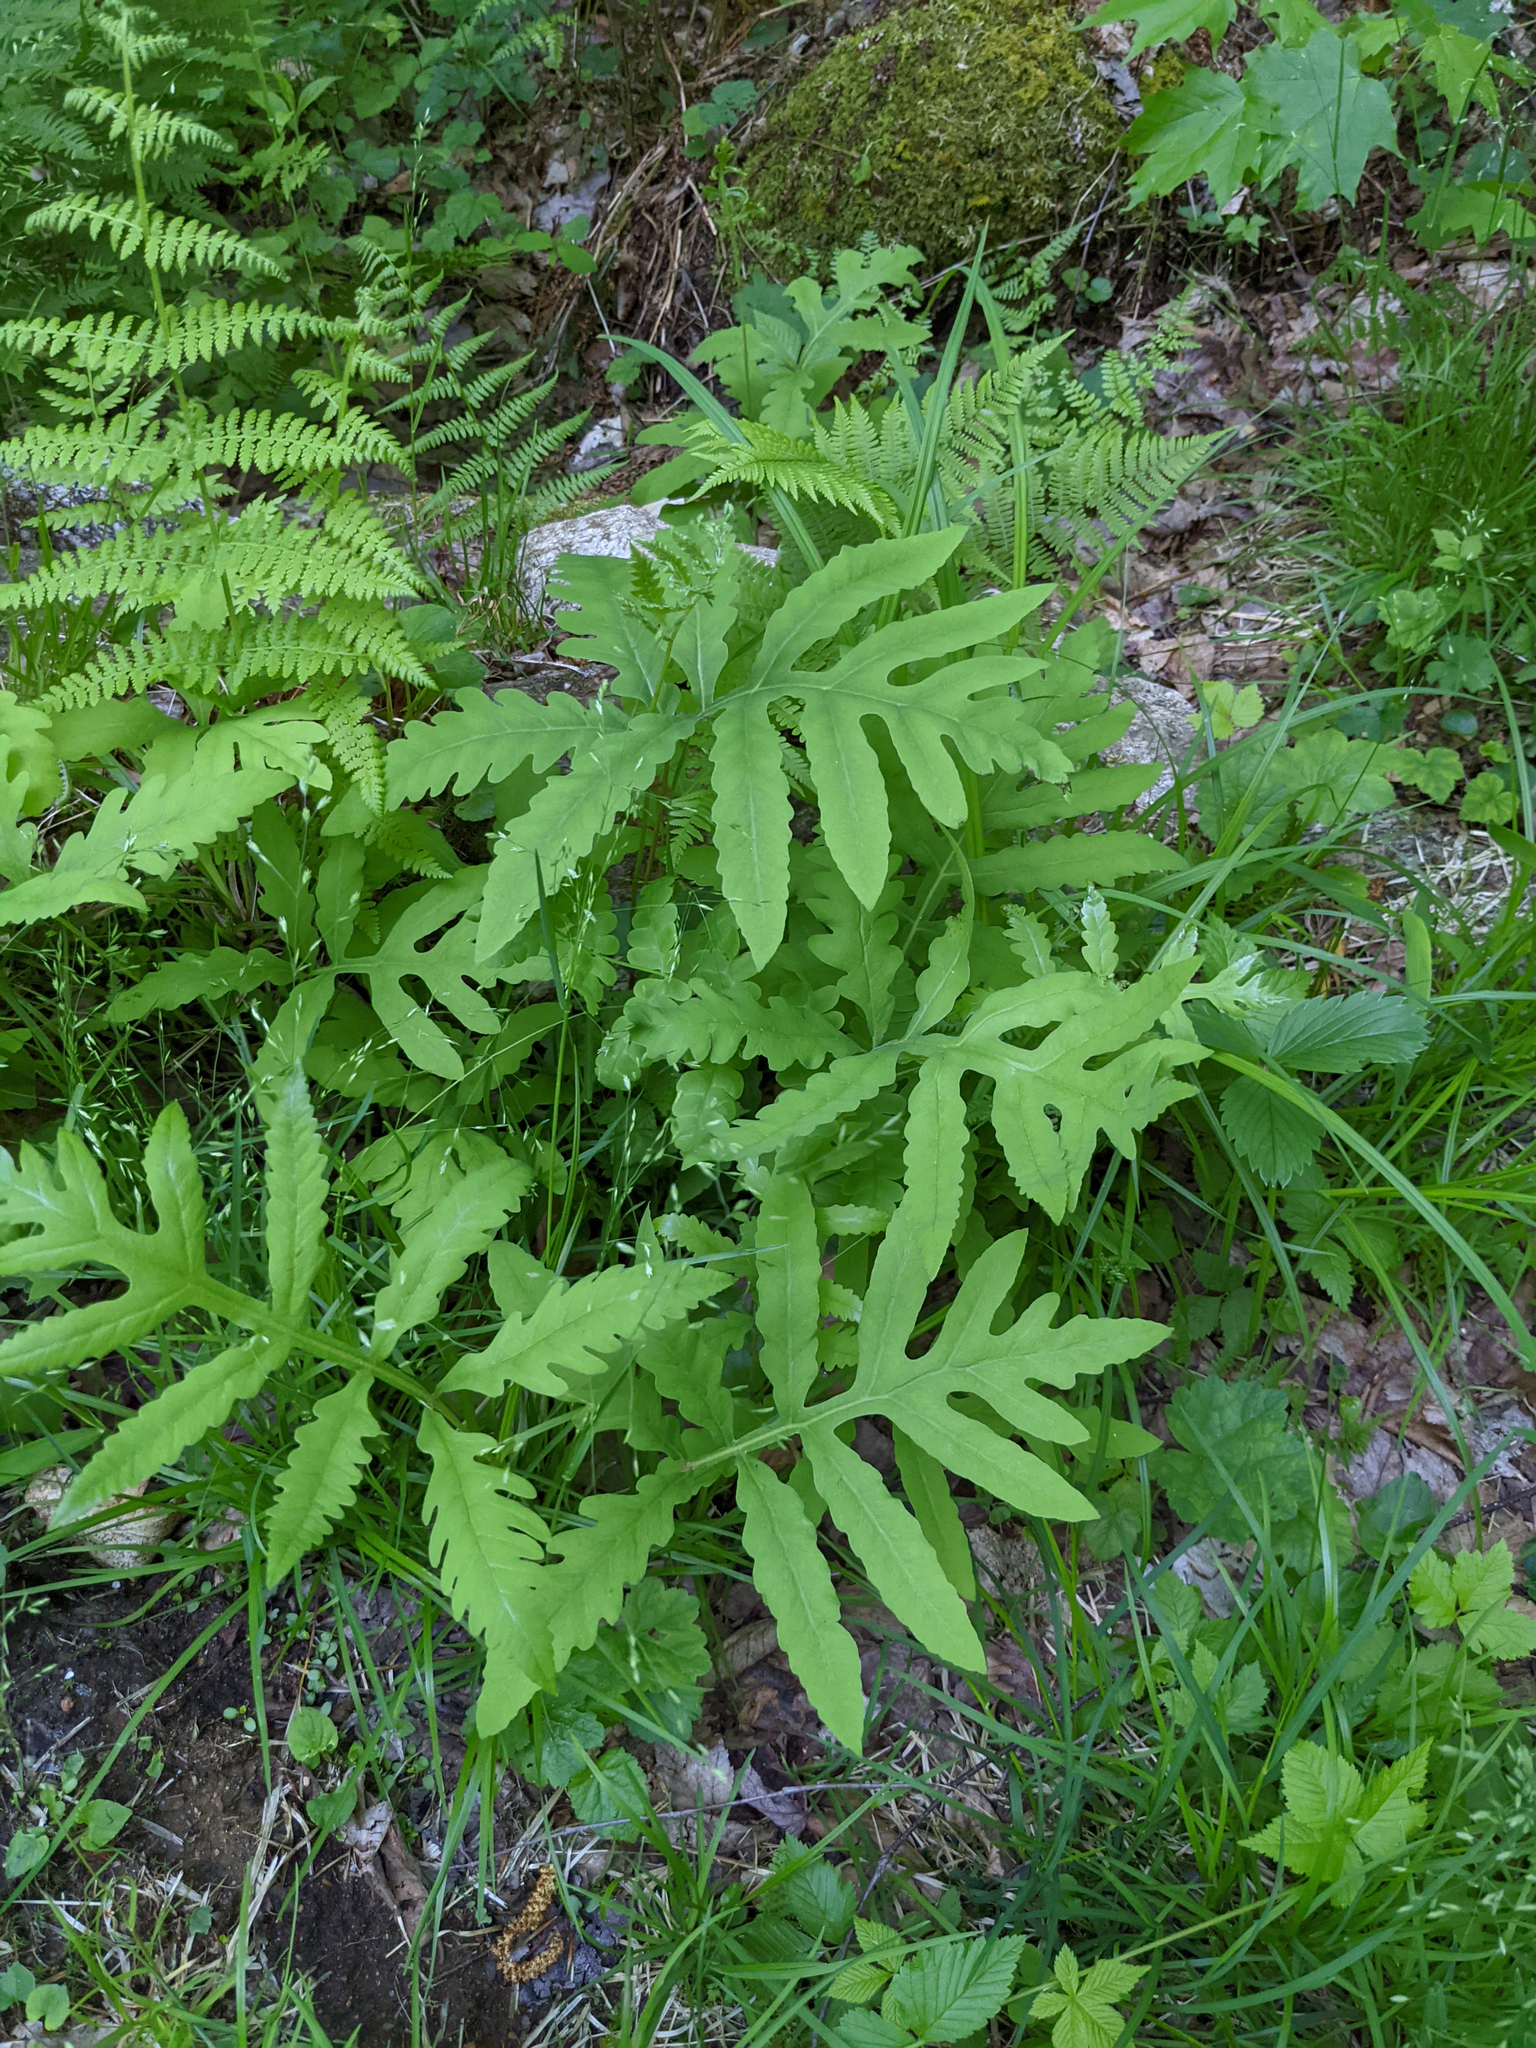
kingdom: Plantae
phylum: Tracheophyta
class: Polypodiopsida
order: Polypodiales
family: Onocleaceae
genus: Onoclea
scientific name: Onoclea sensibilis
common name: Sensitive fern
